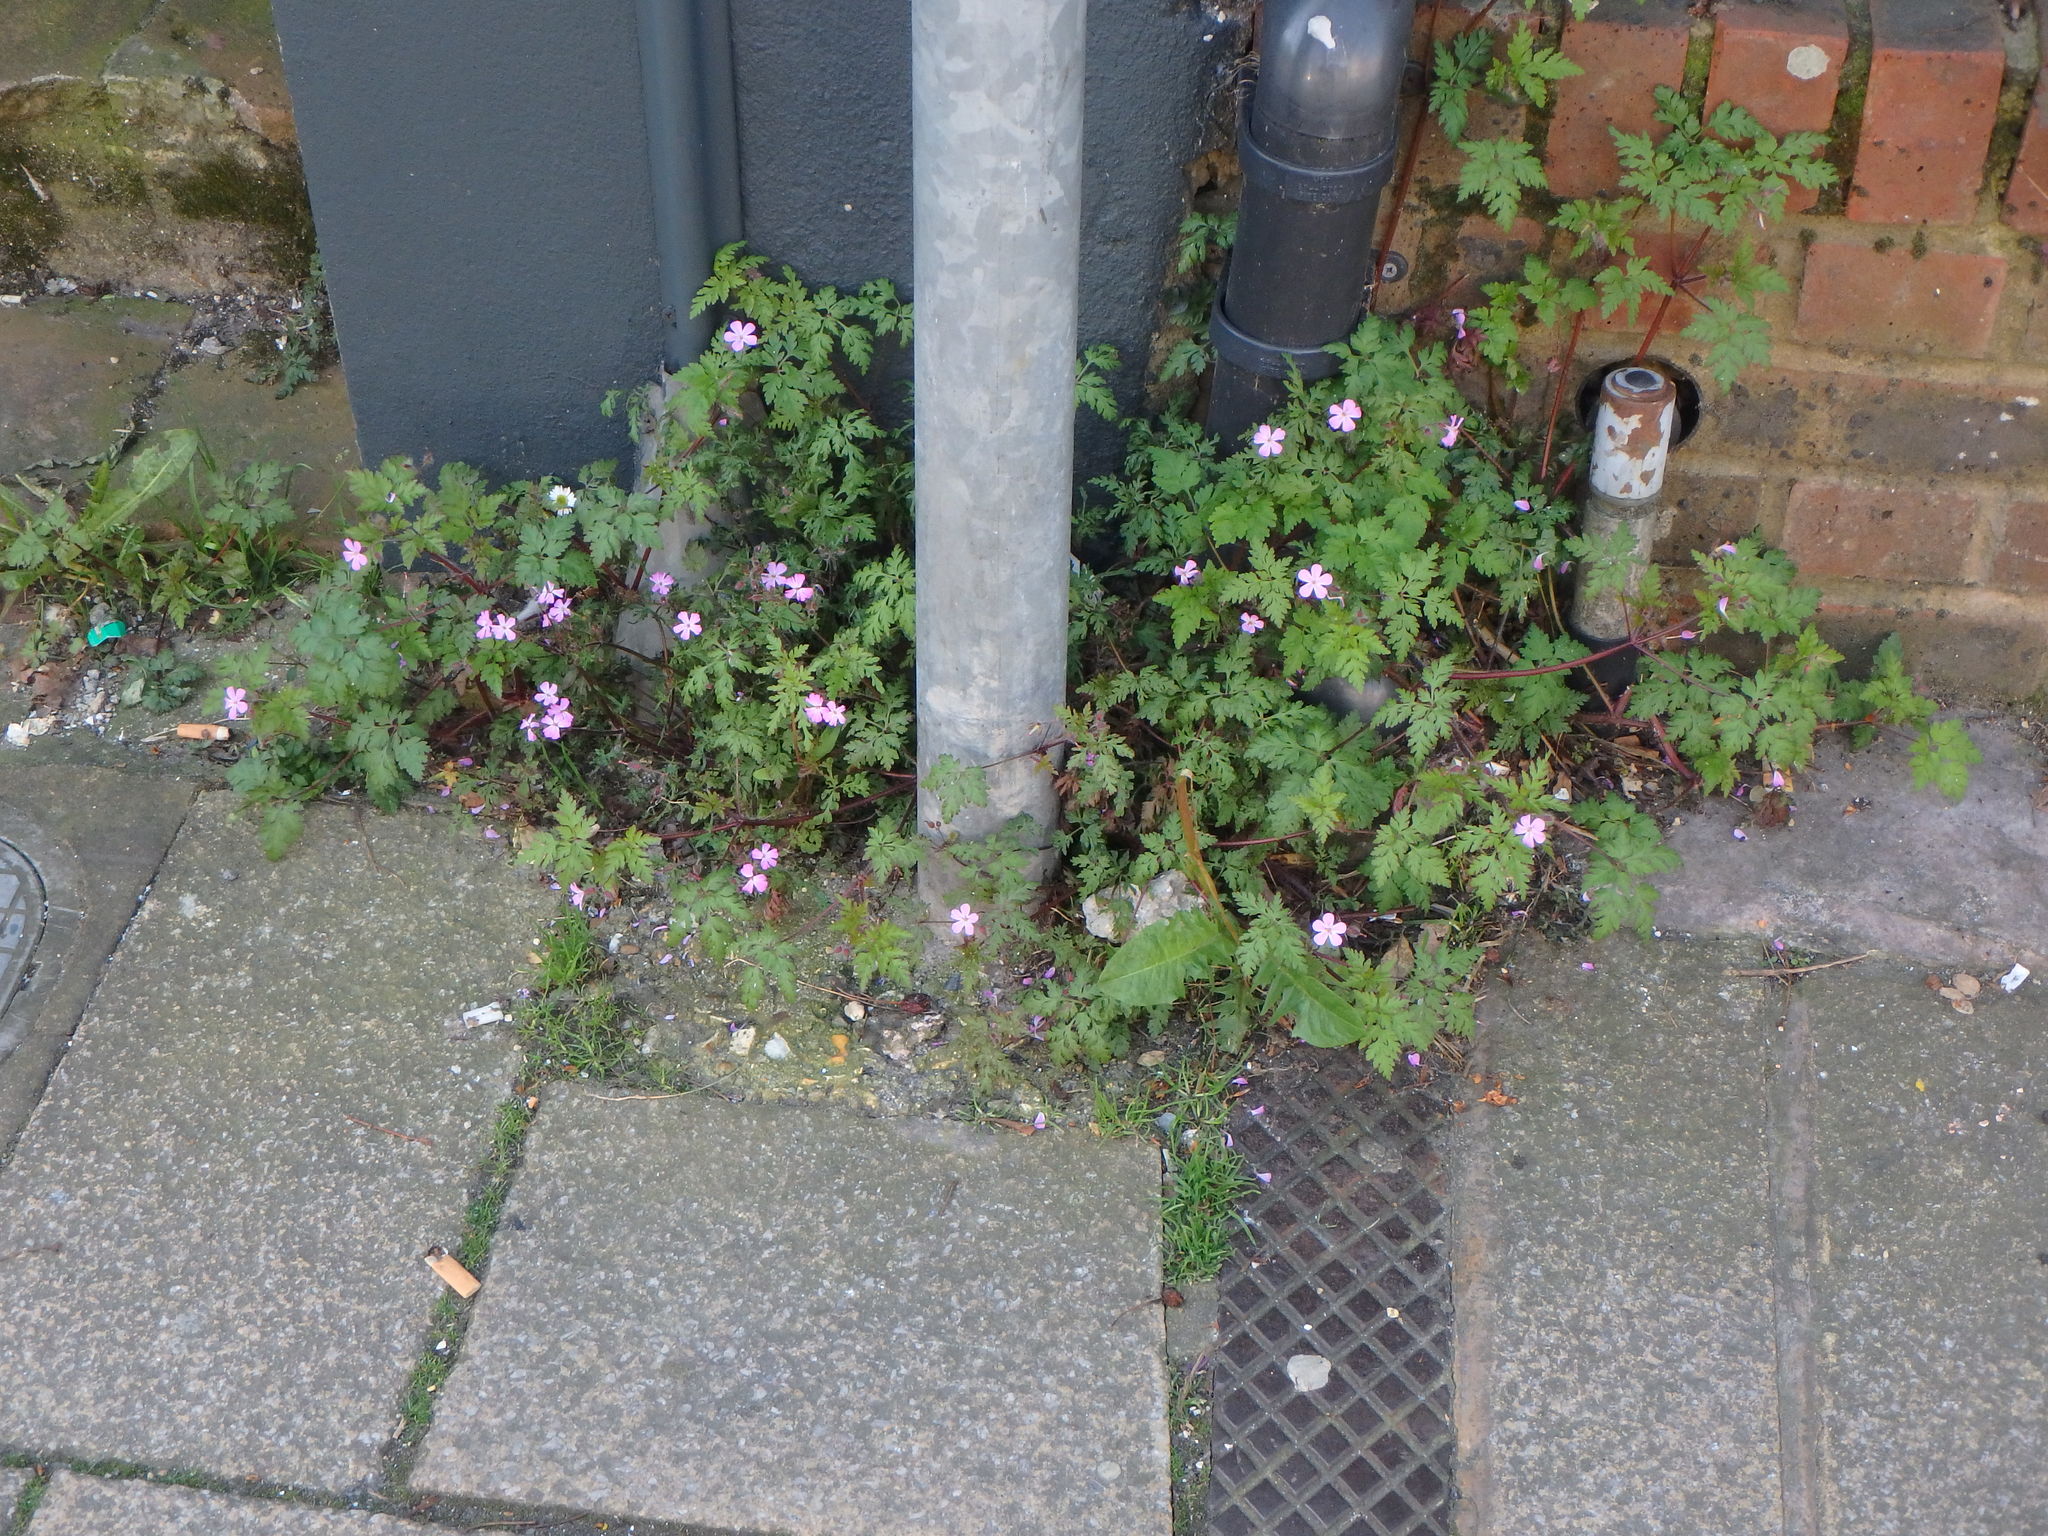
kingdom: Plantae
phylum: Tracheophyta
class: Magnoliopsida
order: Geraniales
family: Geraniaceae
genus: Geranium
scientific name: Geranium robertianum
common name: Herb-robert
